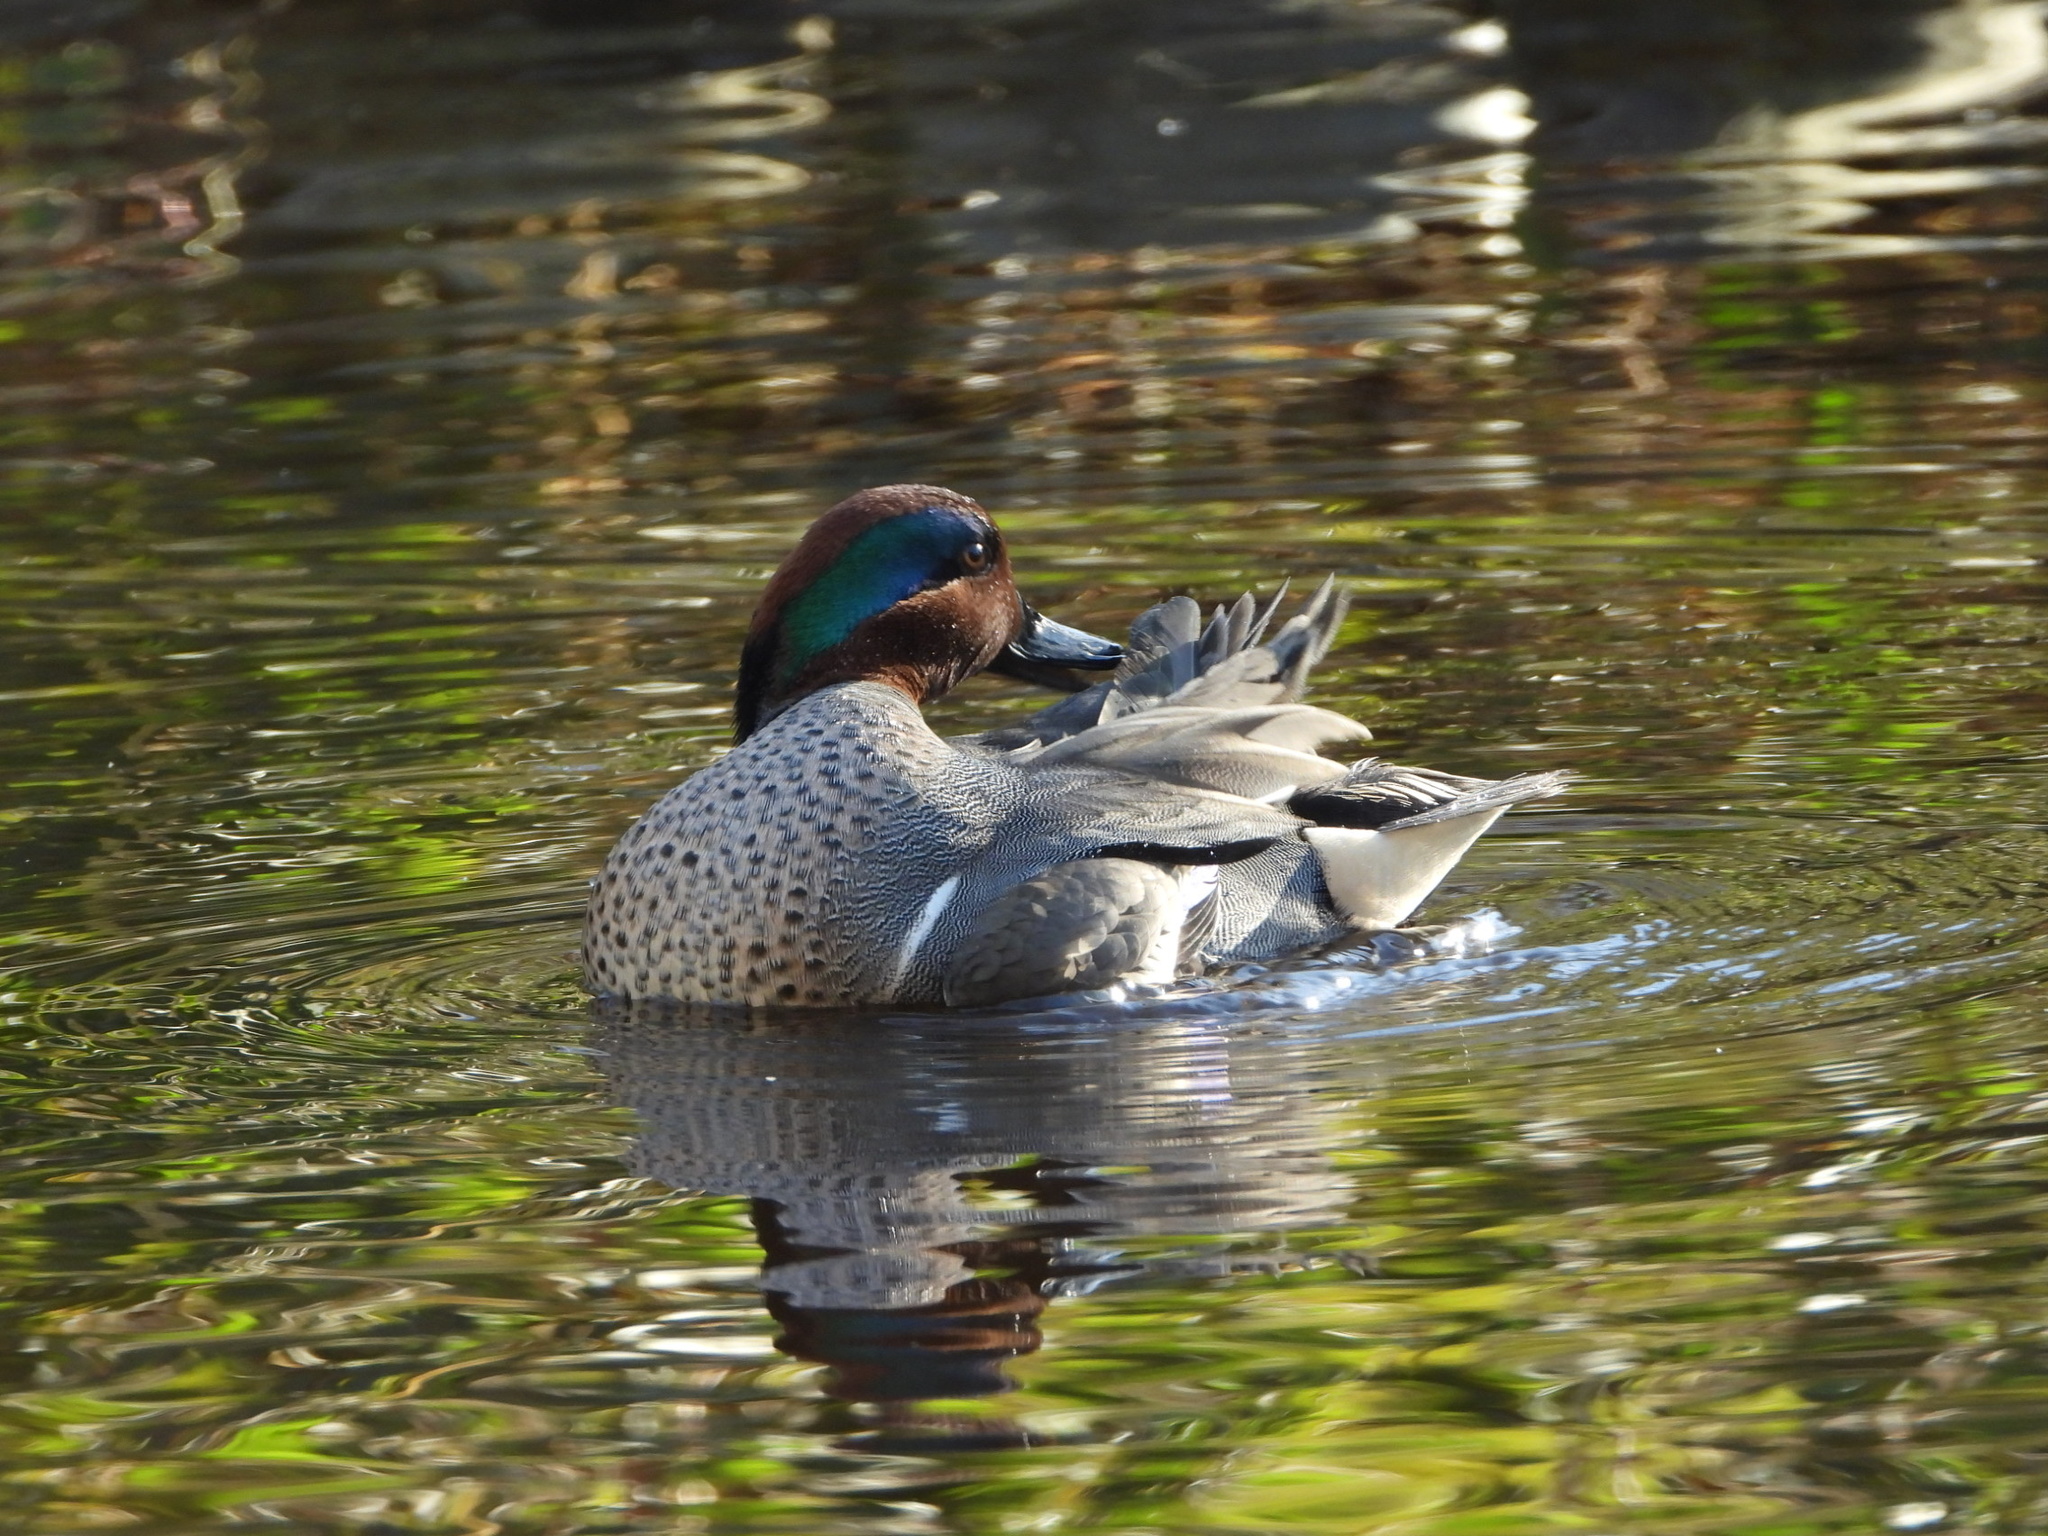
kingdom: Animalia
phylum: Chordata
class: Aves
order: Anseriformes
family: Anatidae
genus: Anas
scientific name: Anas carolinensis
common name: Green-winged teal
